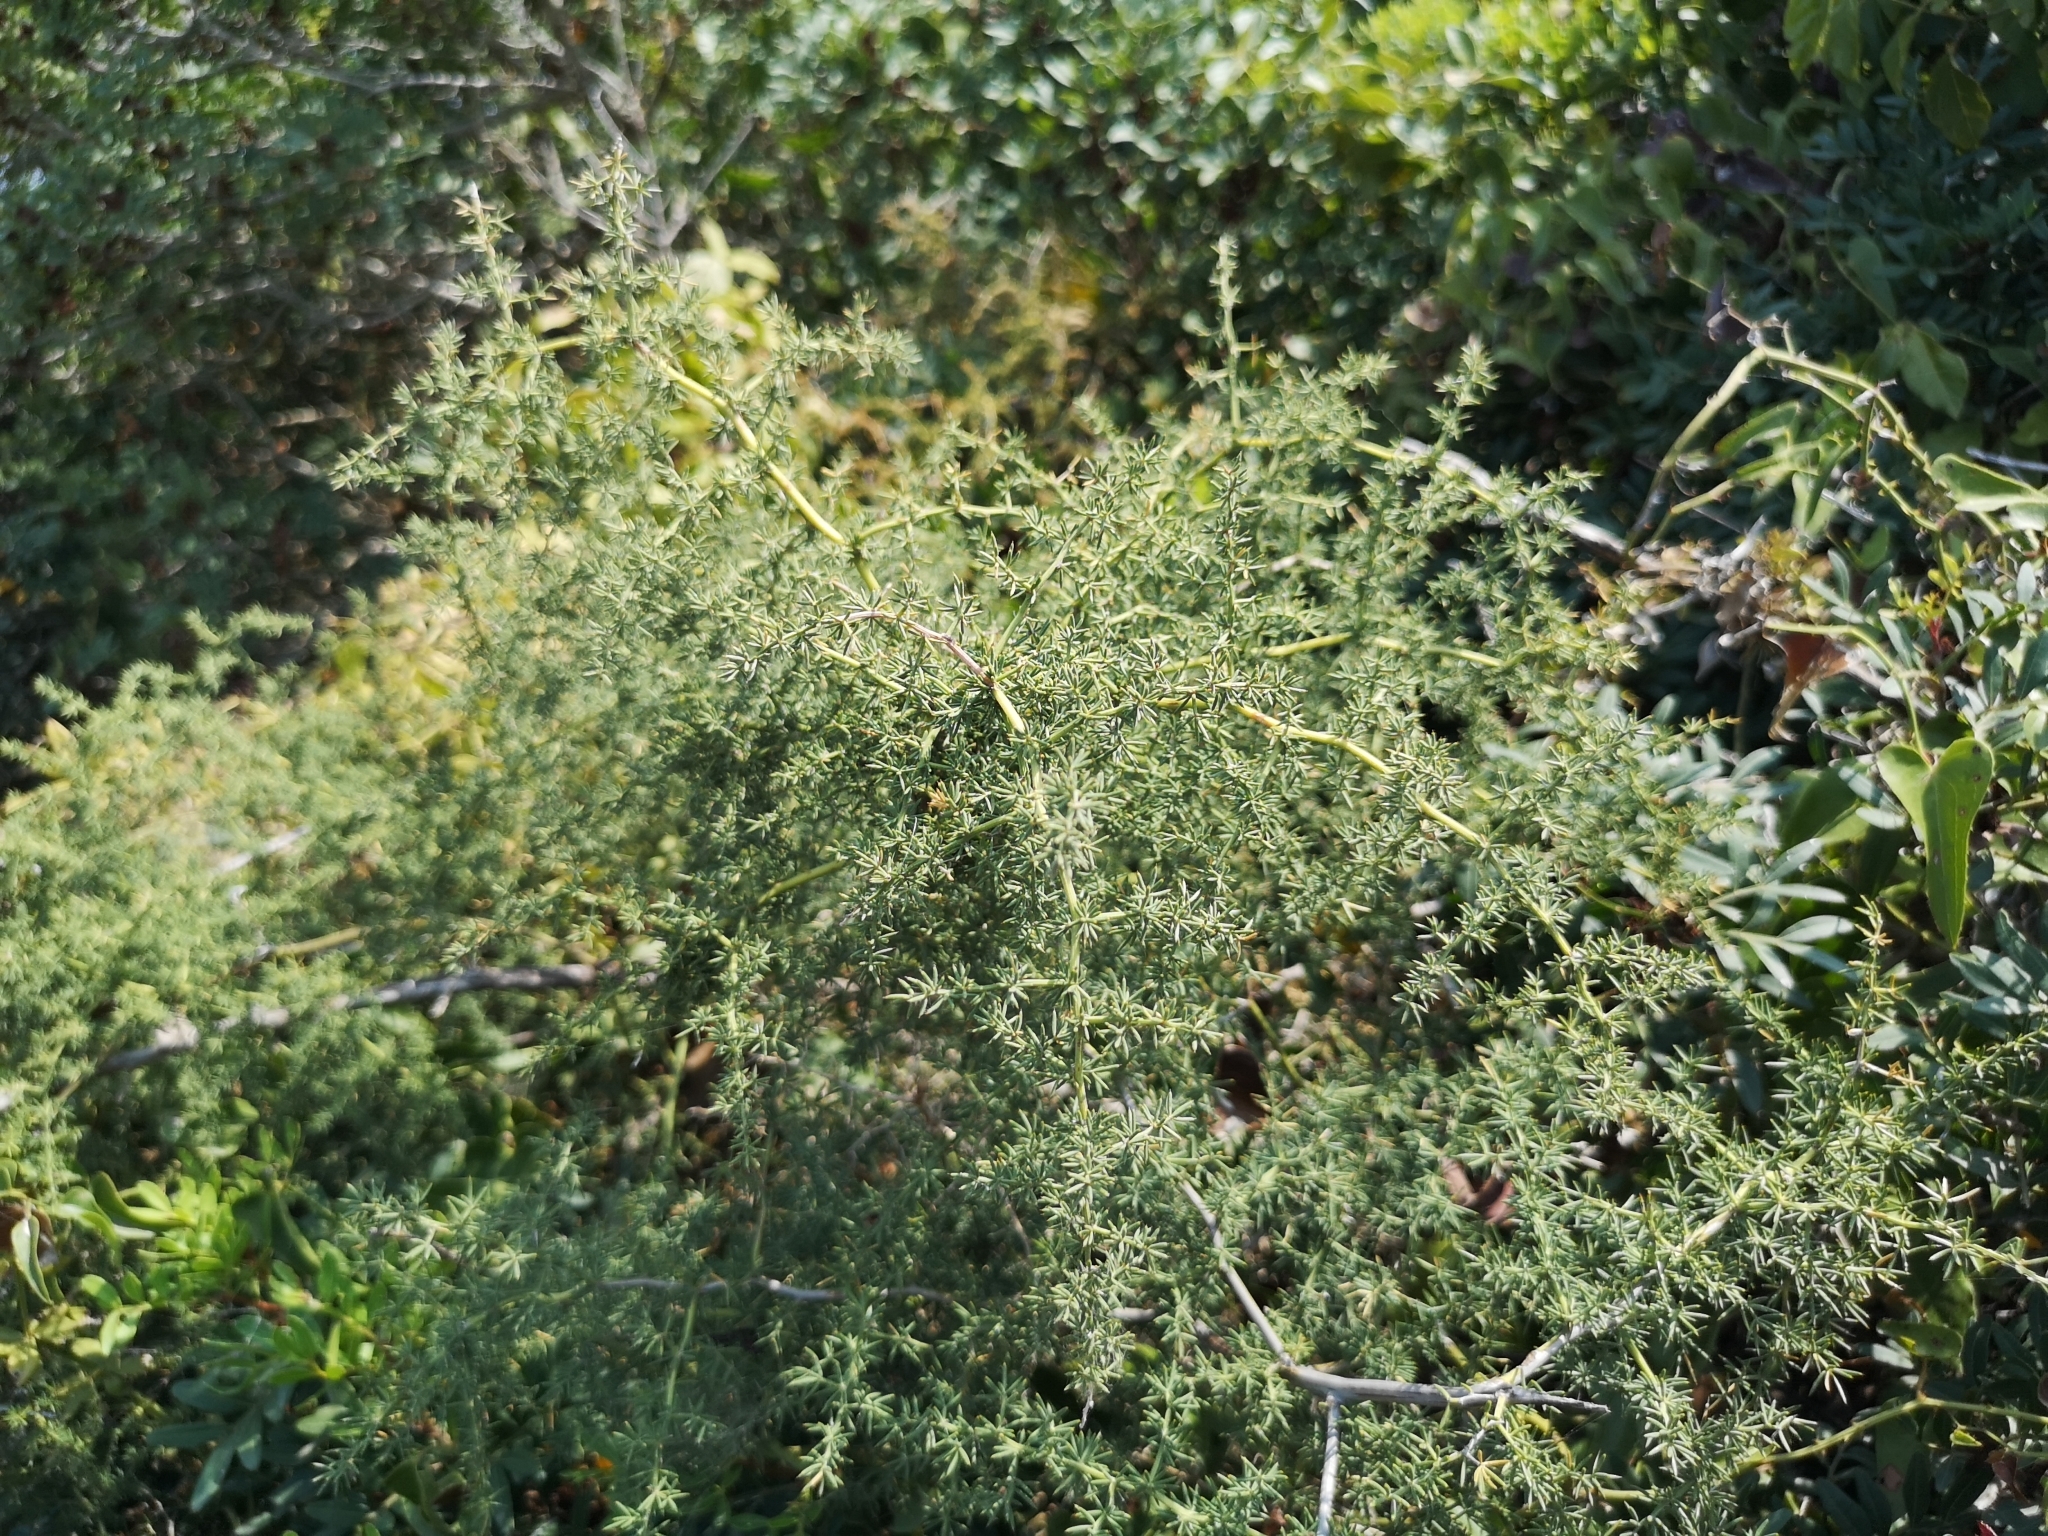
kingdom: Plantae
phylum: Tracheophyta
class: Liliopsida
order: Asparagales
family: Asparagaceae
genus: Asparagus
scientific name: Asparagus acutifolius
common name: Wild asparagus
